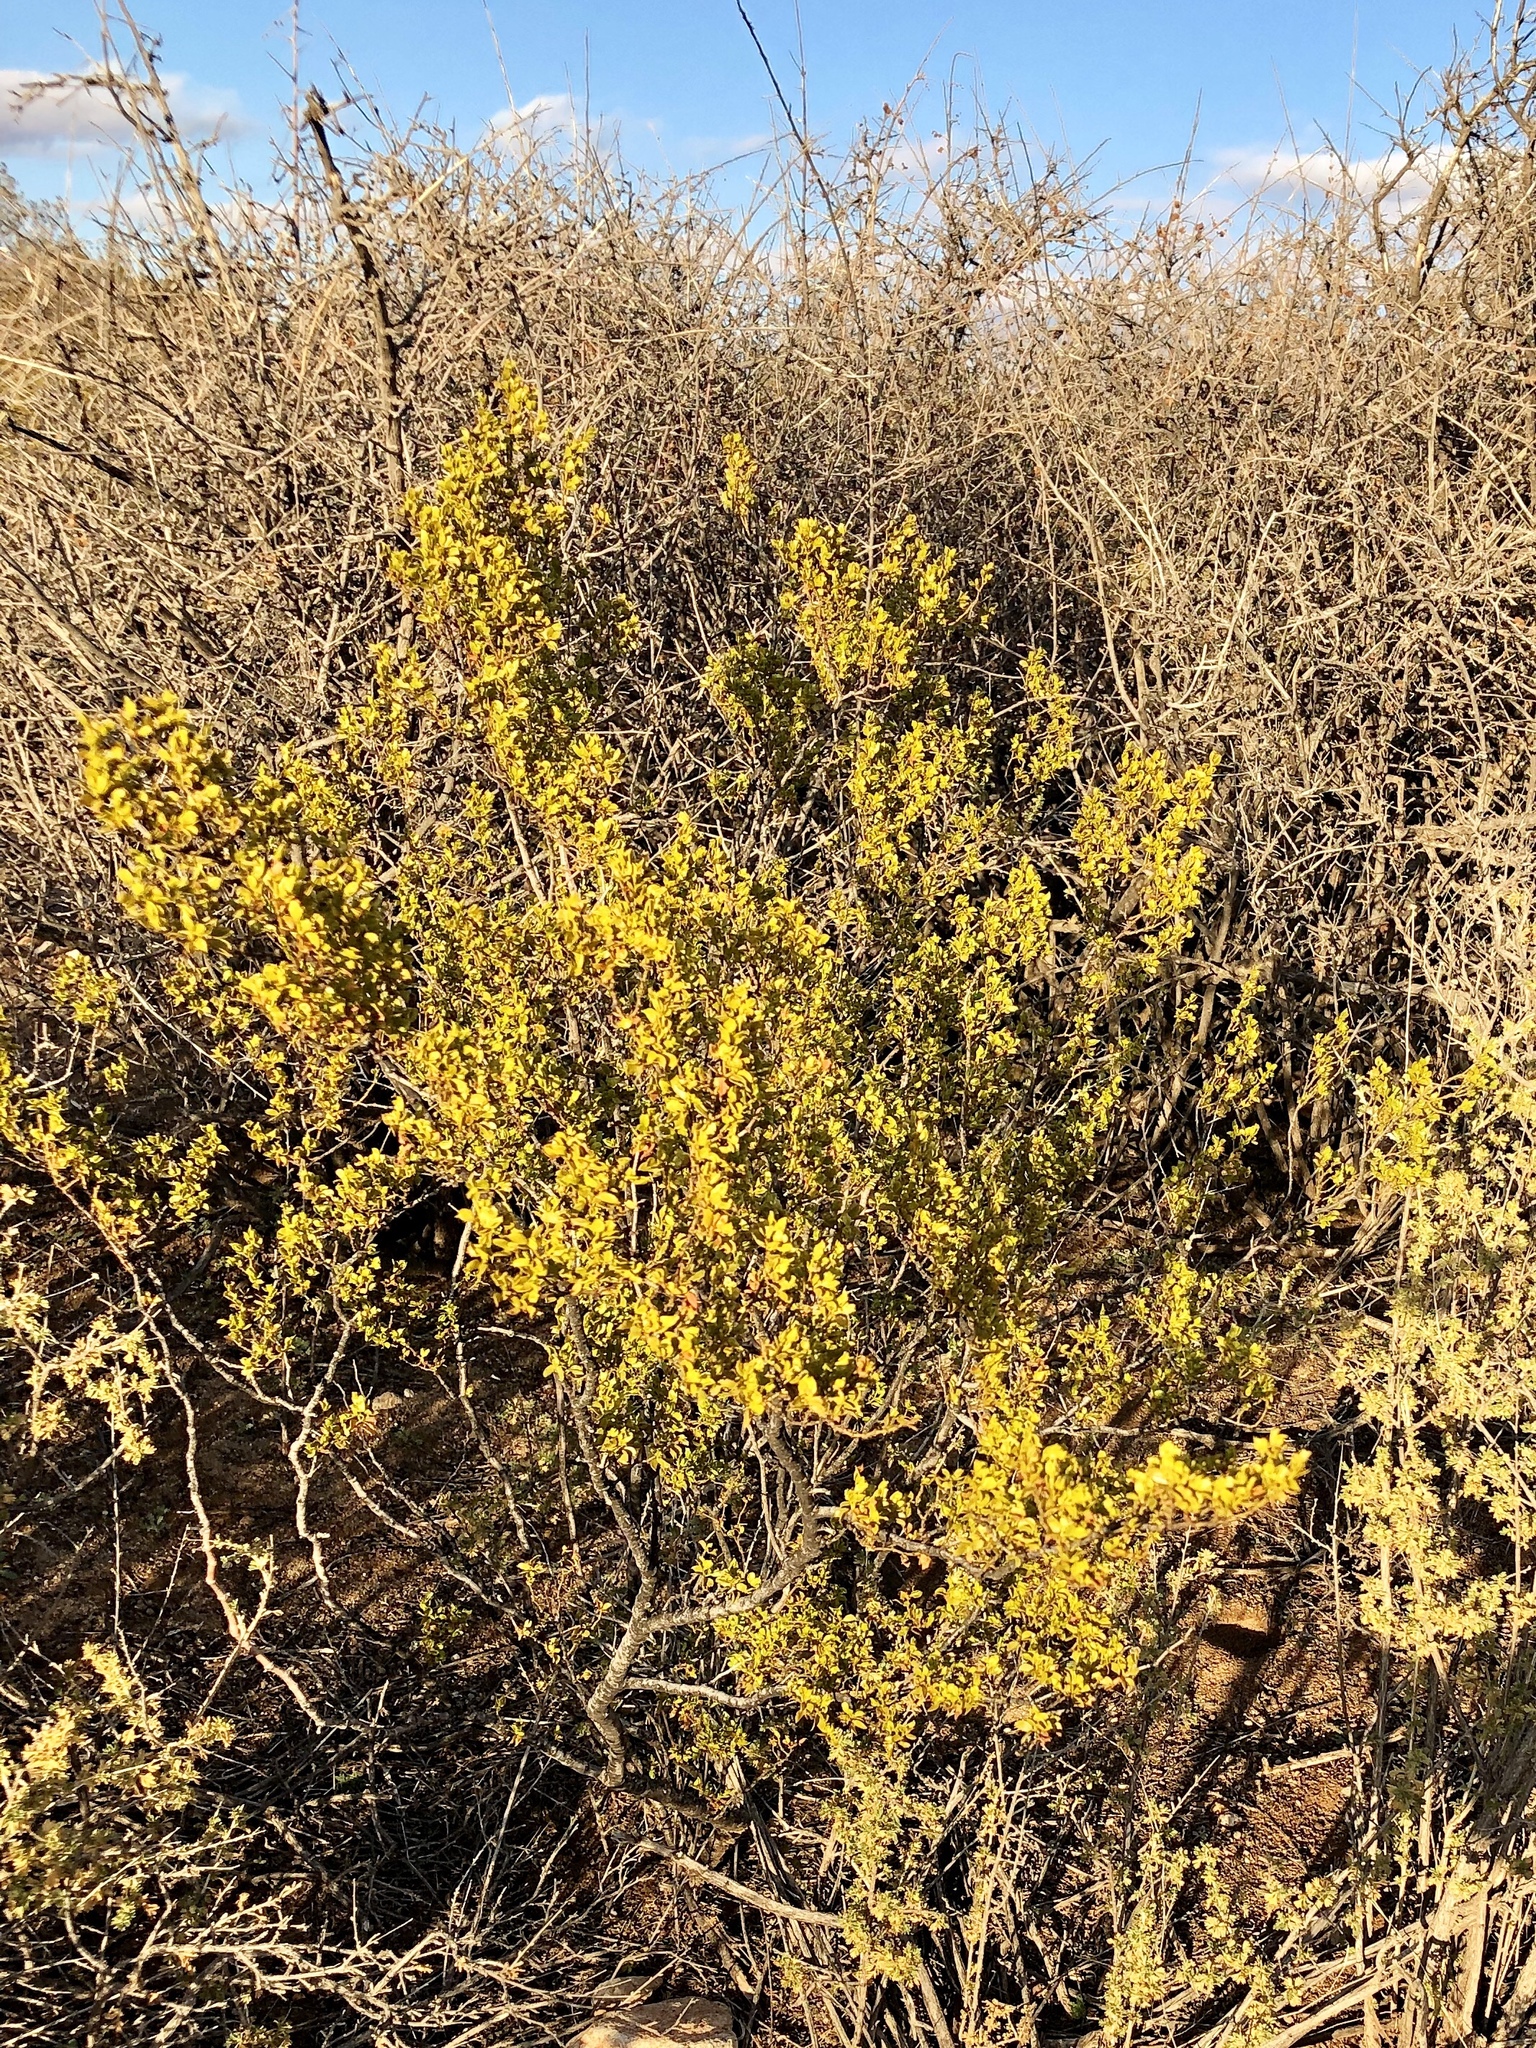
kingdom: Plantae
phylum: Tracheophyta
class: Magnoliopsida
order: Zygophyllales
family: Zygophyllaceae
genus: Larrea
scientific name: Larrea tridentata
